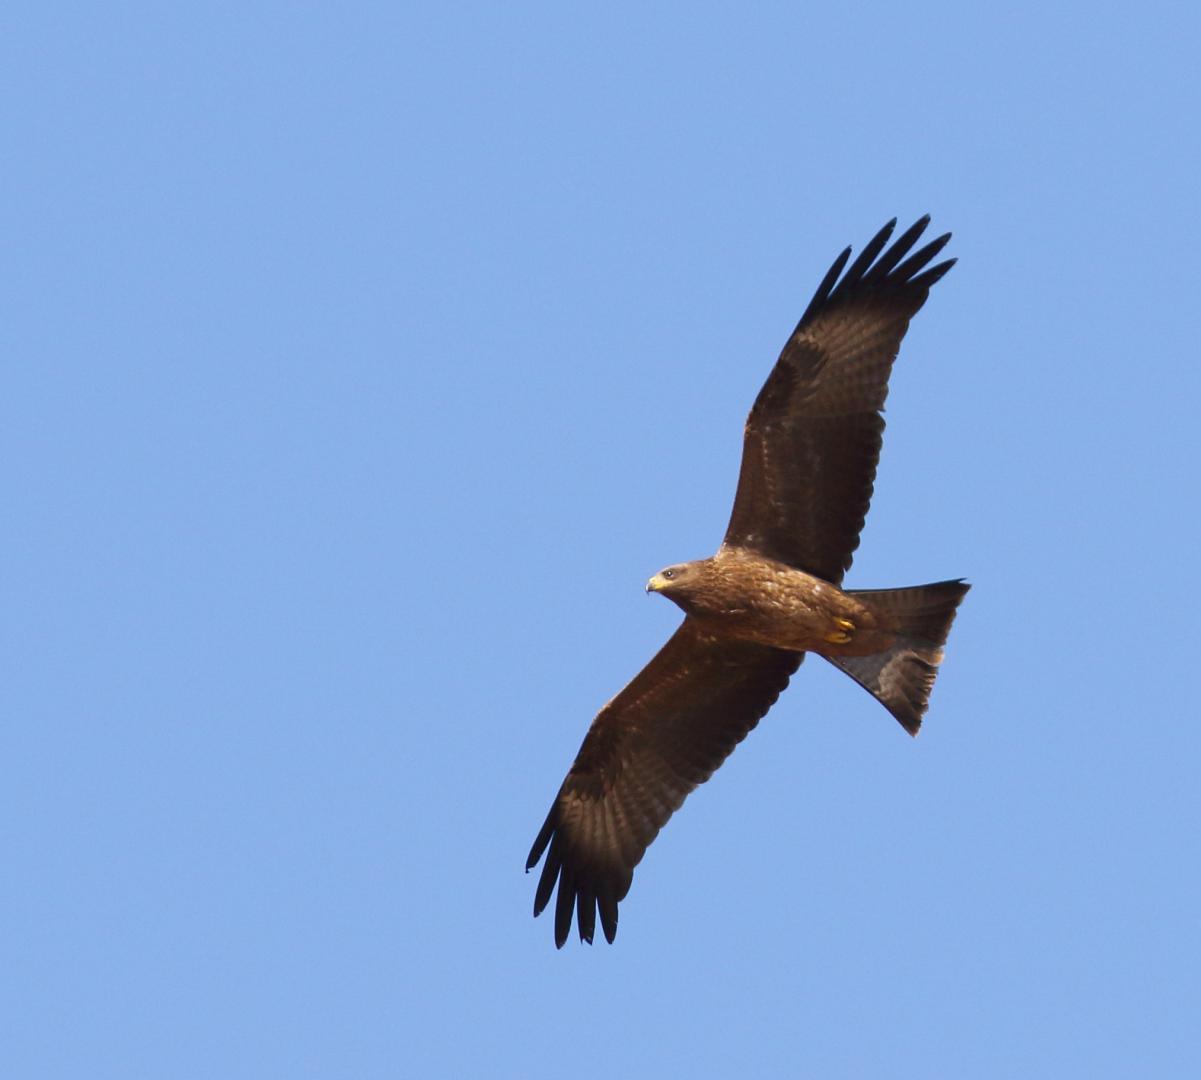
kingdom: Animalia
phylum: Chordata
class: Aves
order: Accipitriformes
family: Accipitridae
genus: Milvus
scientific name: Milvus migrans
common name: Black kite
